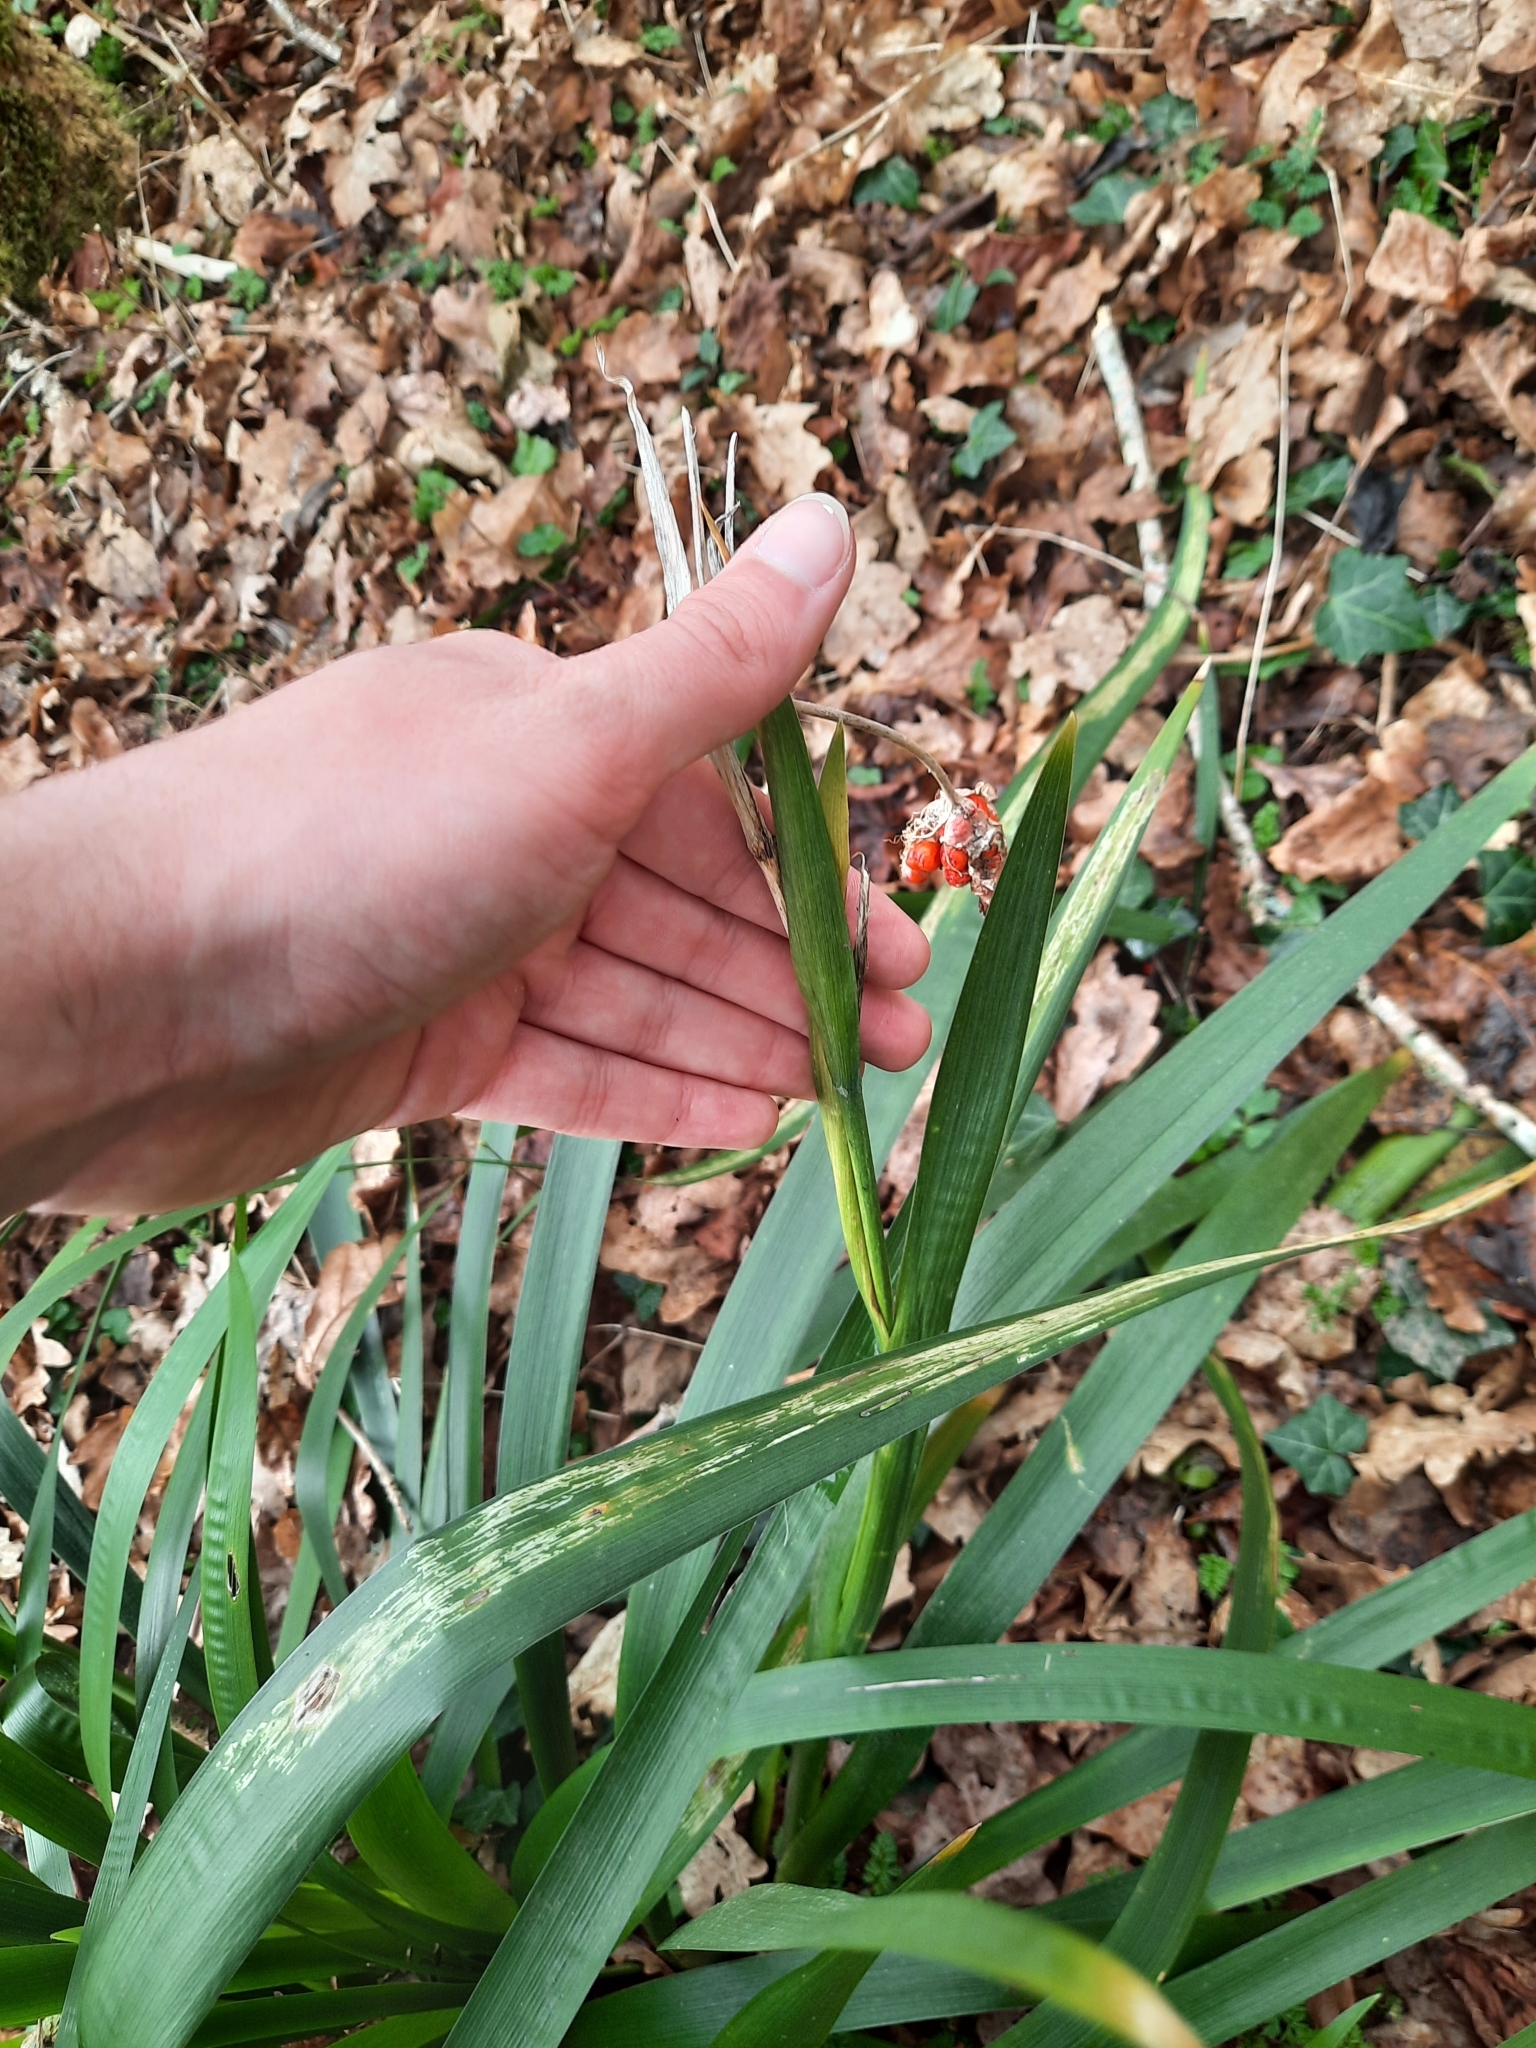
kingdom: Plantae
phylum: Tracheophyta
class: Liliopsida
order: Asparagales
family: Iridaceae
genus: Iris
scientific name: Iris foetidissima
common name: Stinking iris
